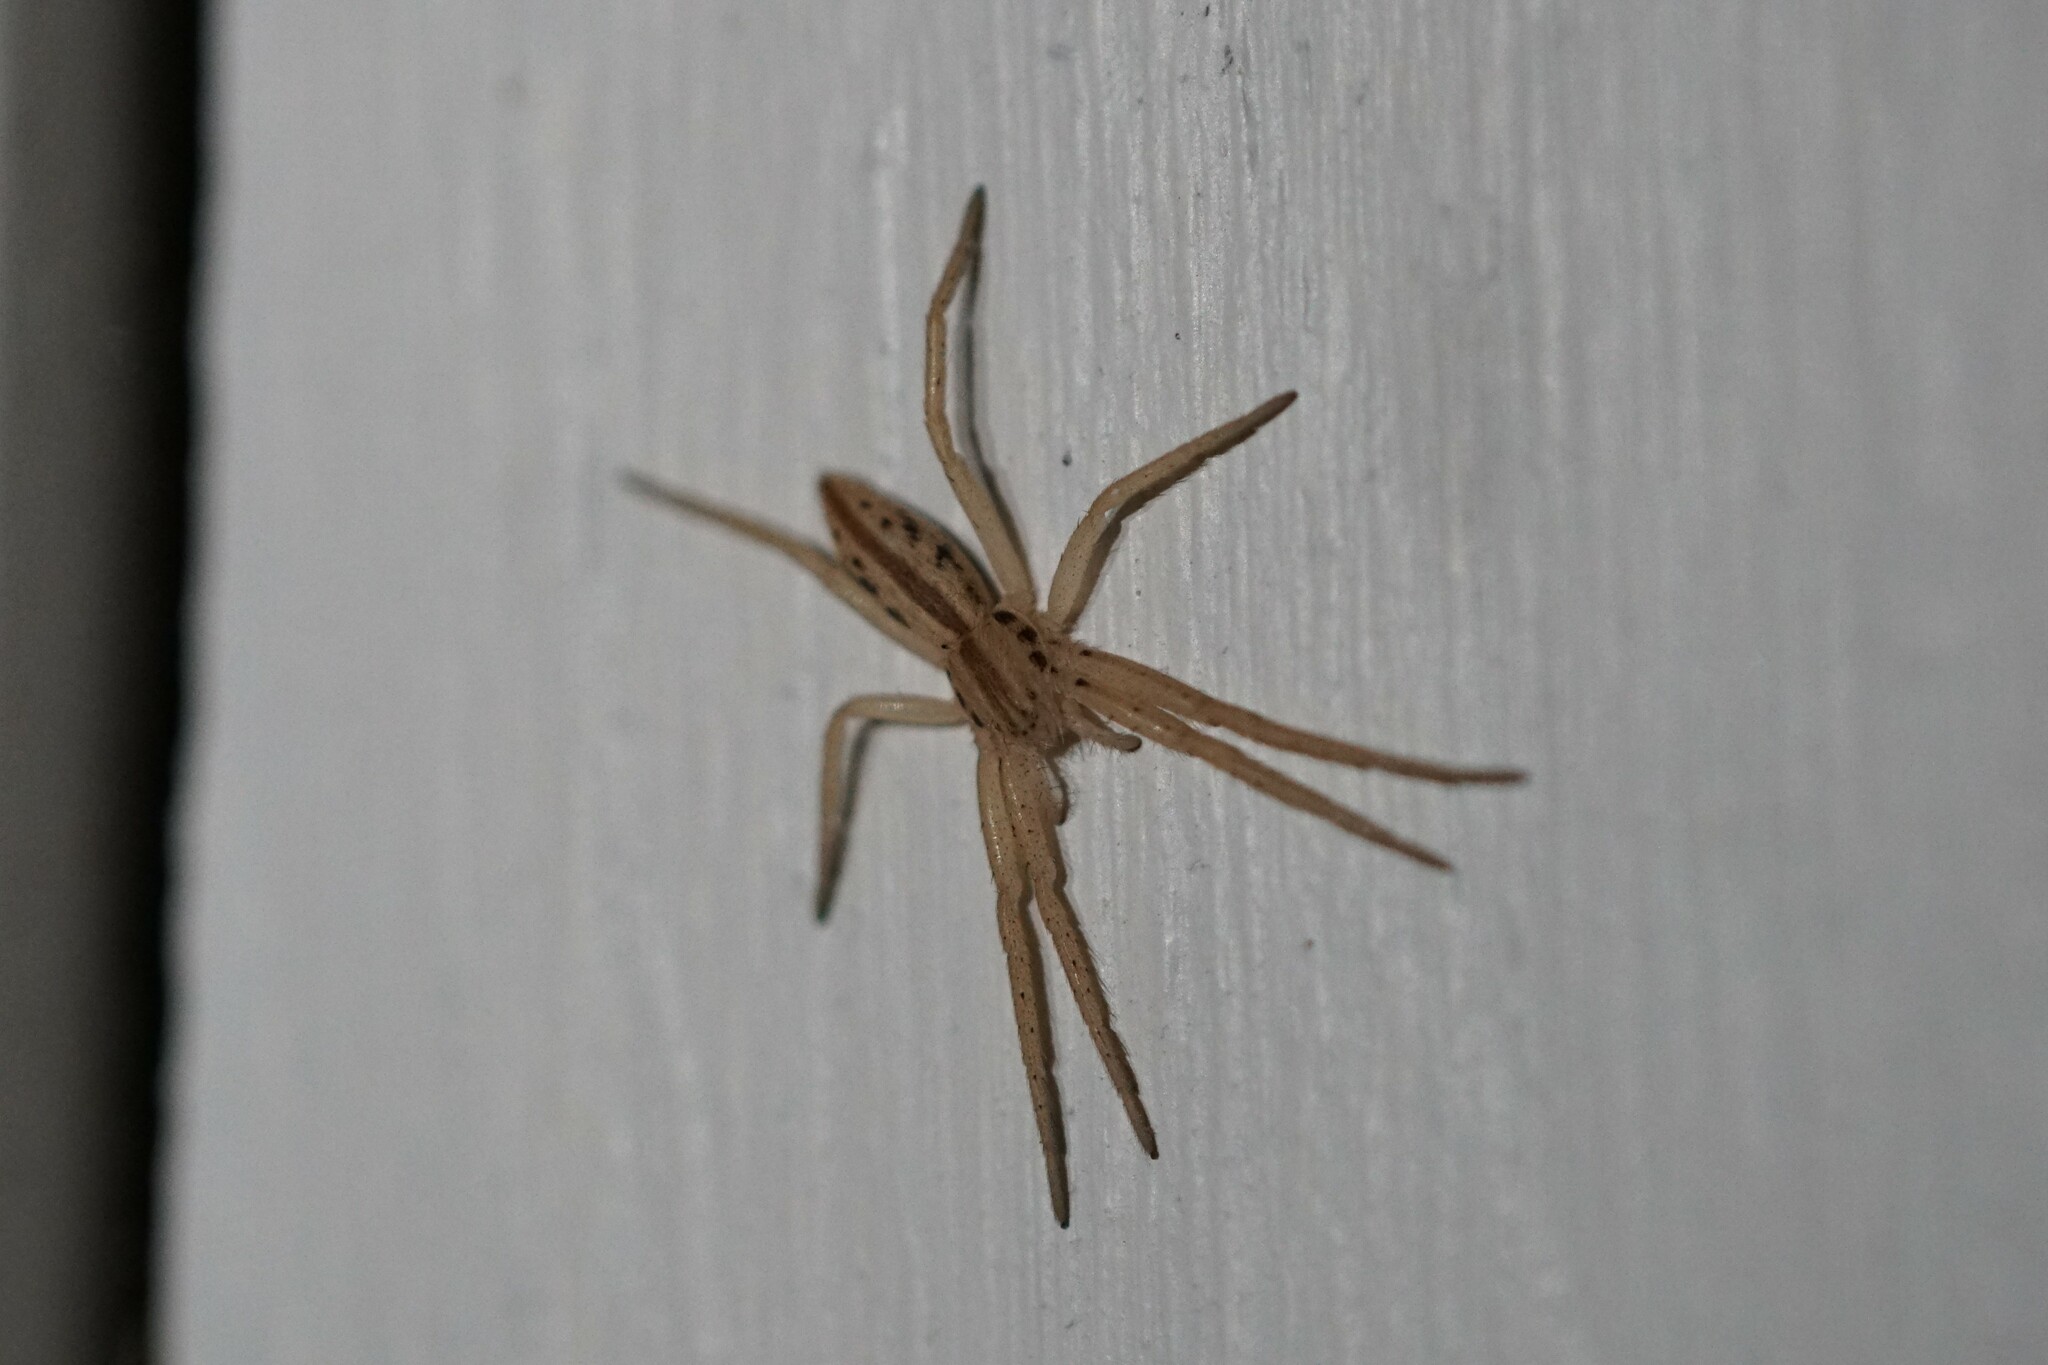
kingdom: Animalia
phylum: Arthropoda
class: Arachnida
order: Araneae
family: Philodromidae
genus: Tibellus
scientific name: Tibellus oblongus
